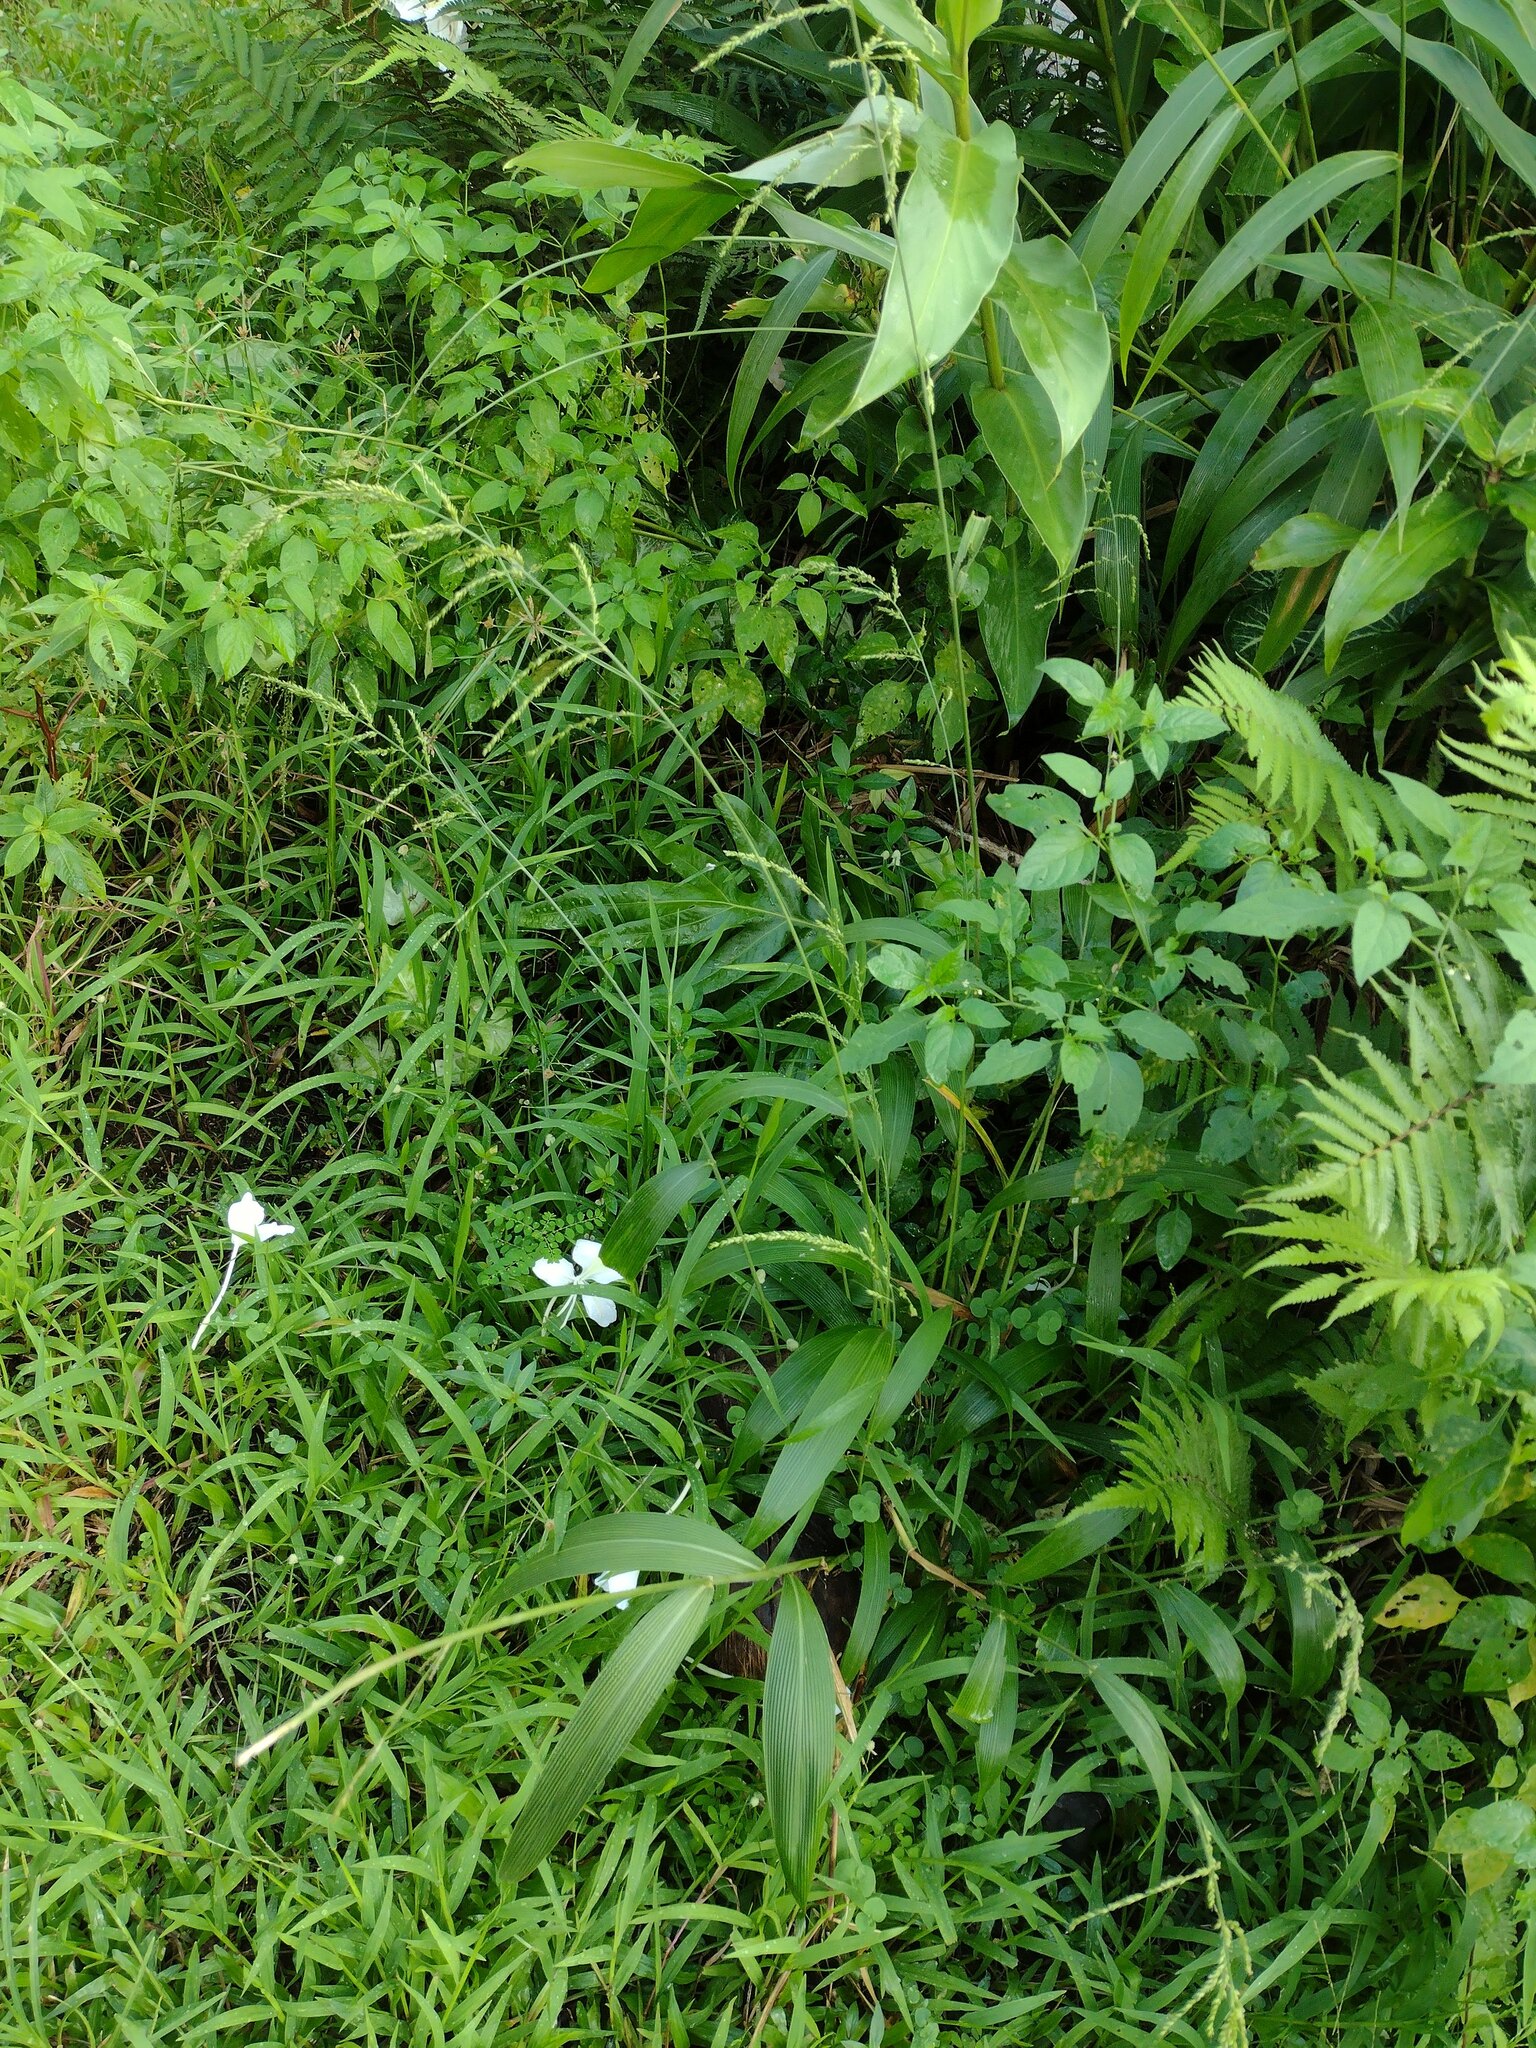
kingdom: Plantae
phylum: Tracheophyta
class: Liliopsida
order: Poales
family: Poaceae
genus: Setaria
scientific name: Setaria palmifolia
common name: Broadleaved bristlegrass
